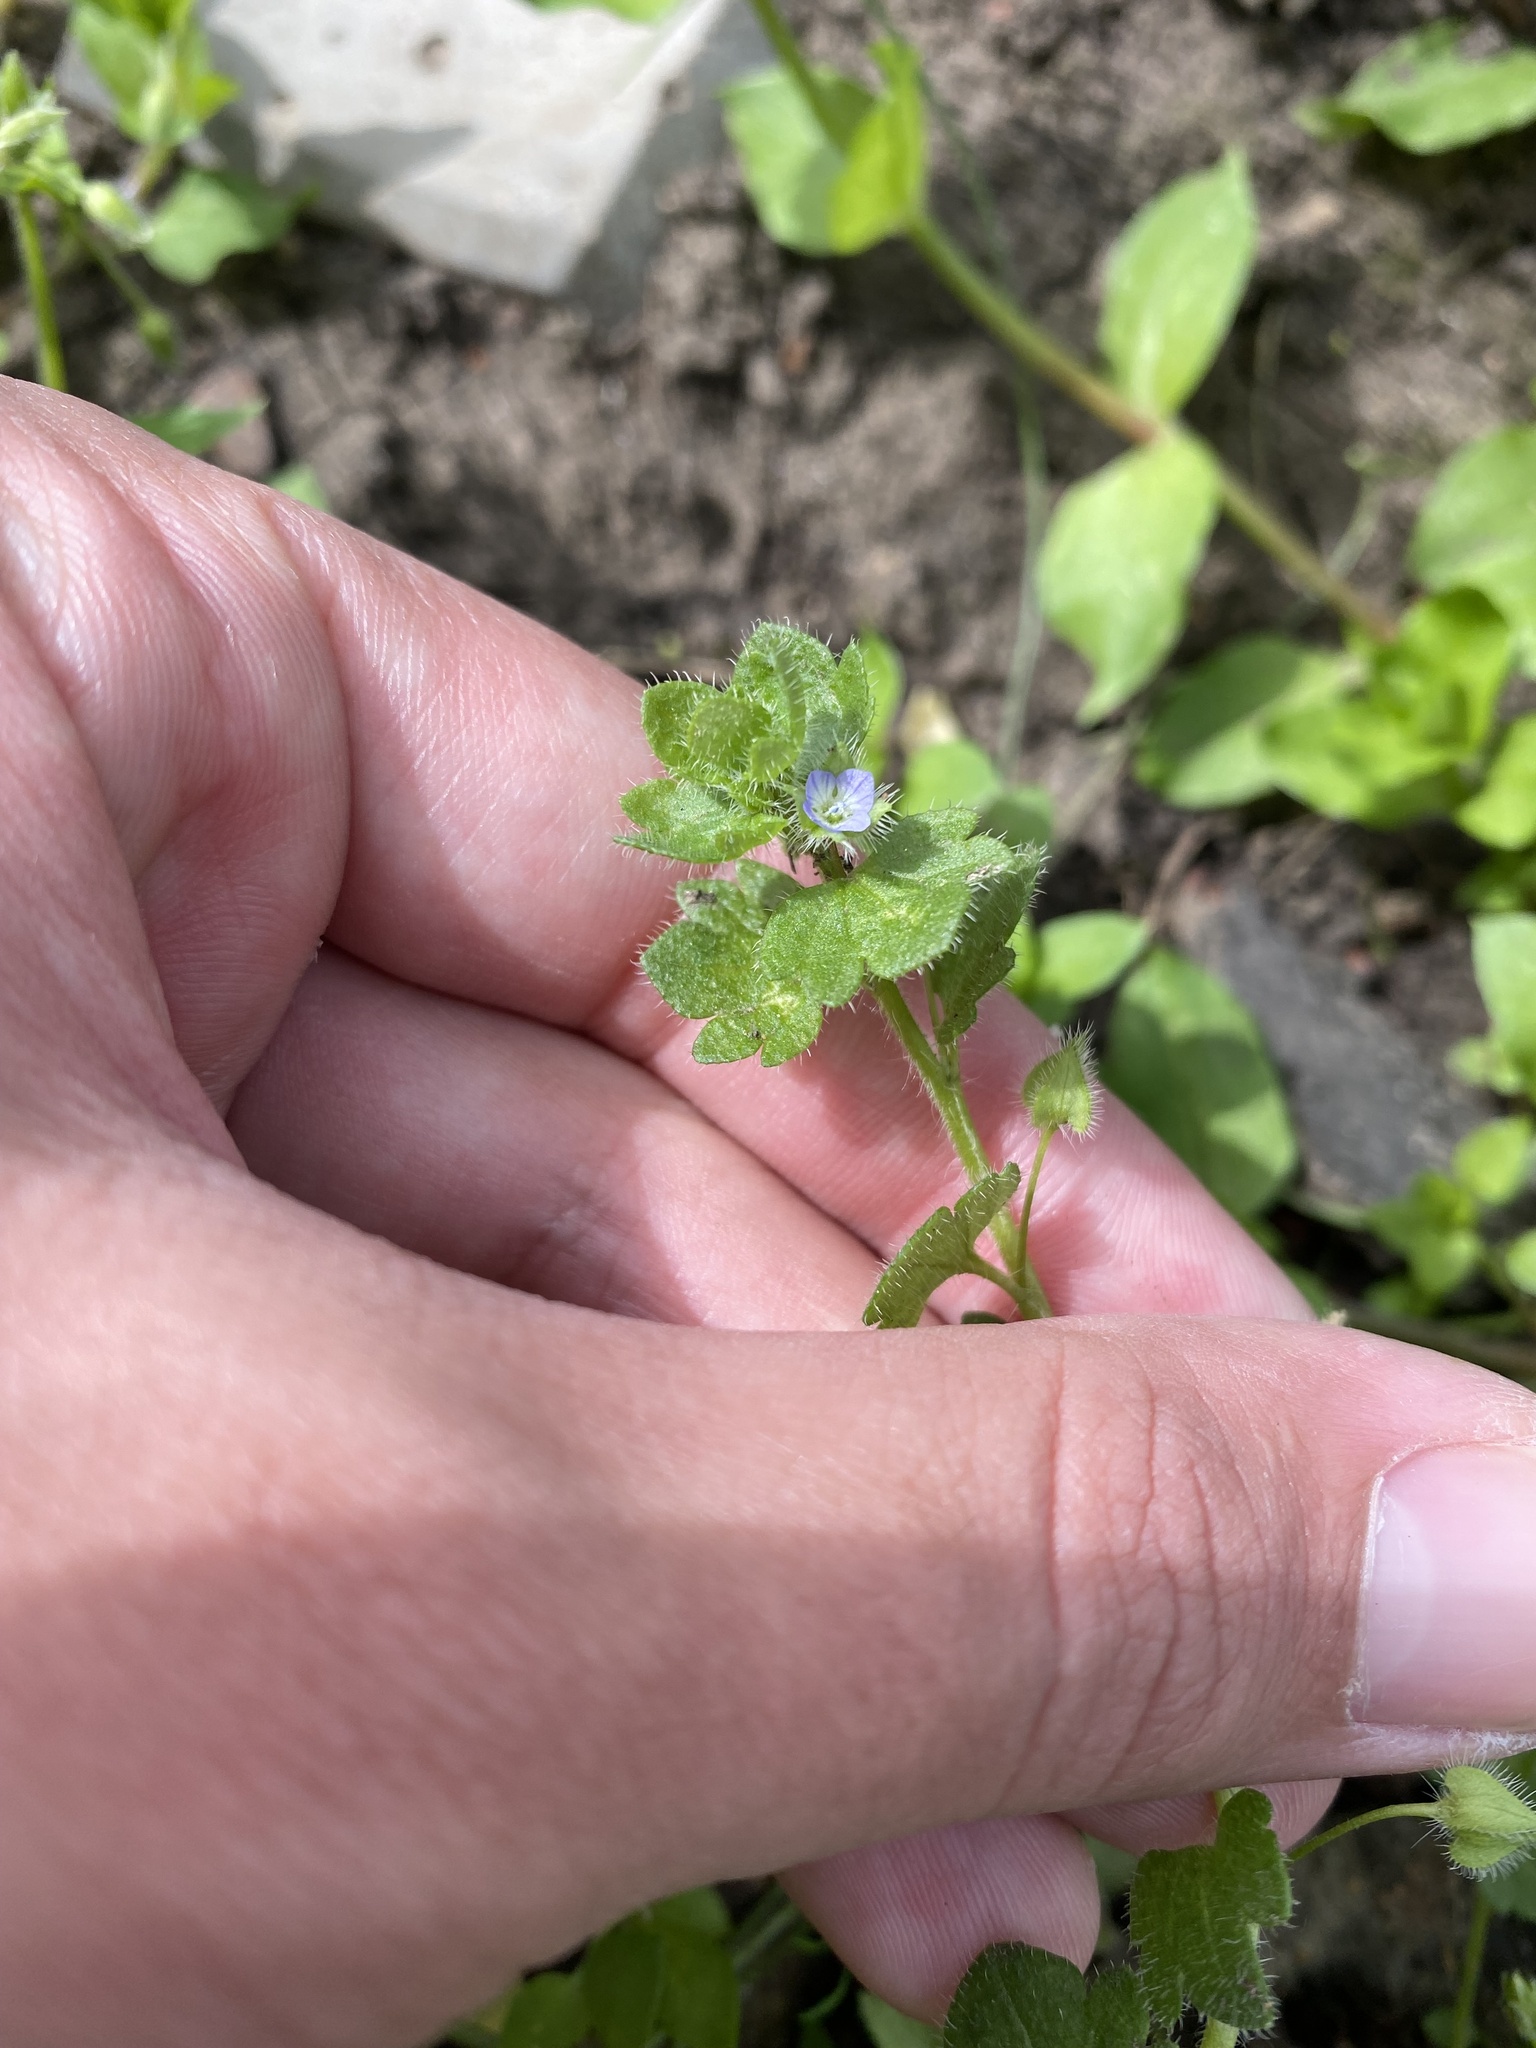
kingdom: Plantae
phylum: Tracheophyta
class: Magnoliopsida
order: Lamiales
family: Plantaginaceae
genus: Veronica
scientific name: Veronica hederifolia
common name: Ivy-leaved speedwell
